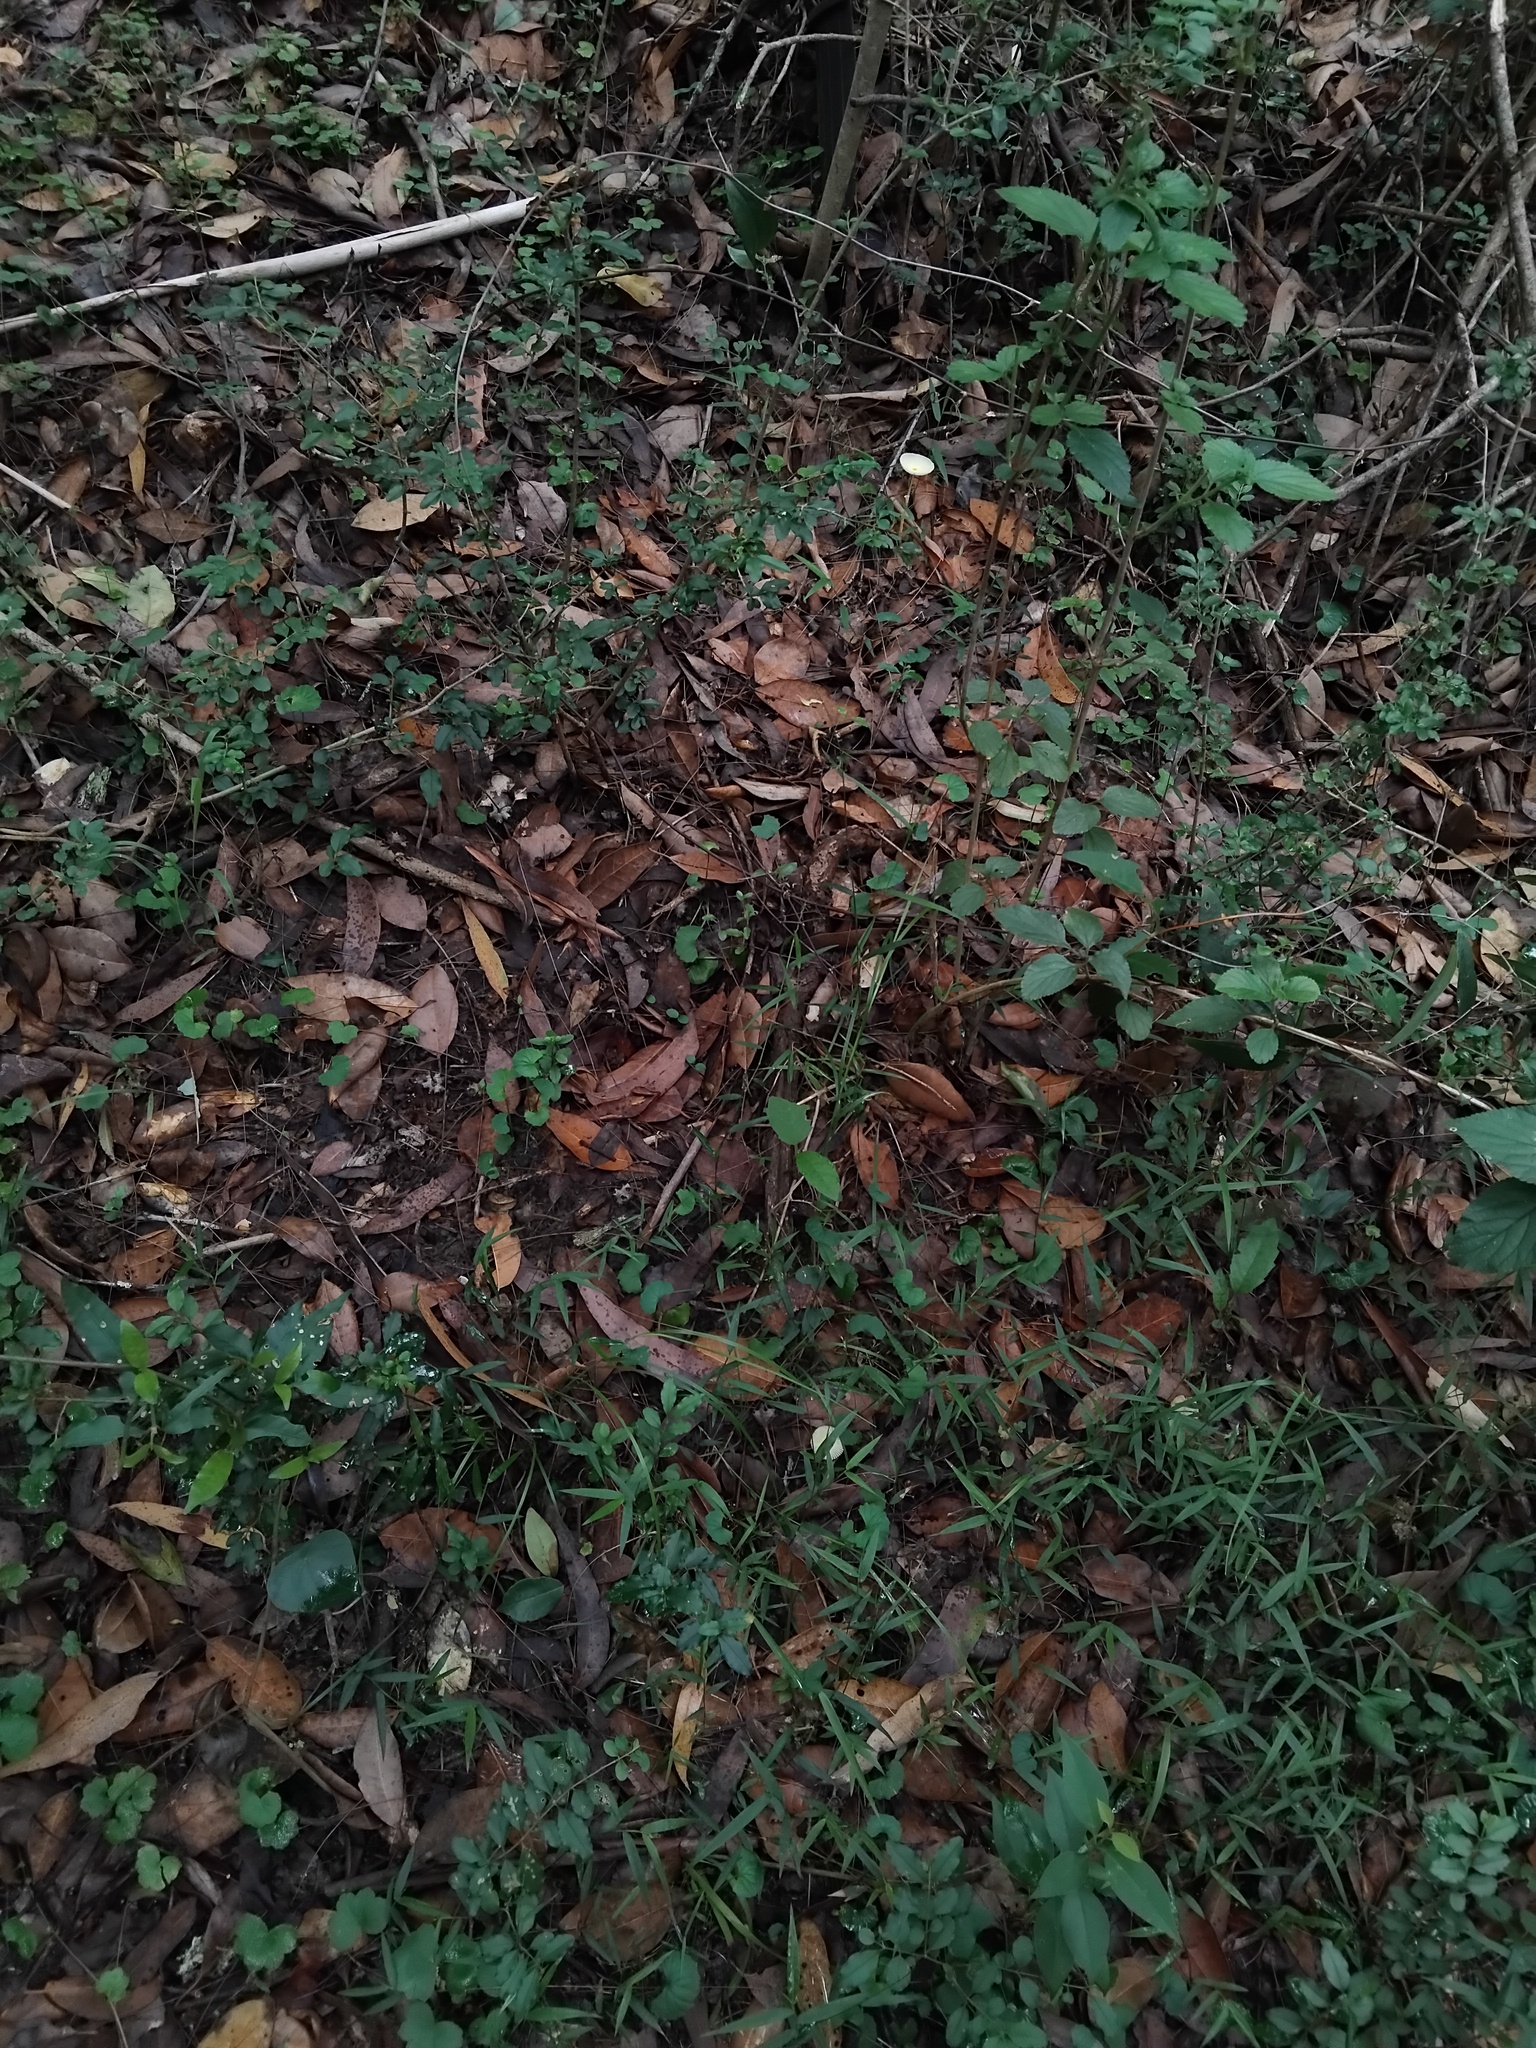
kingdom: Fungi
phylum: Basidiomycota
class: Agaricomycetes
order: Agaricales
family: Agaricaceae
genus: Leucocoprinus
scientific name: Leucocoprinus fragilissimus
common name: Fragile dapperling
